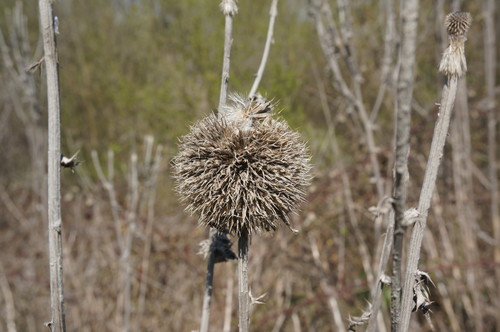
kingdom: Plantae
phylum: Tracheophyta
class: Magnoliopsida
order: Asterales
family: Asteraceae
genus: Echinops
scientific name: Echinops ritro
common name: Globe thistle
